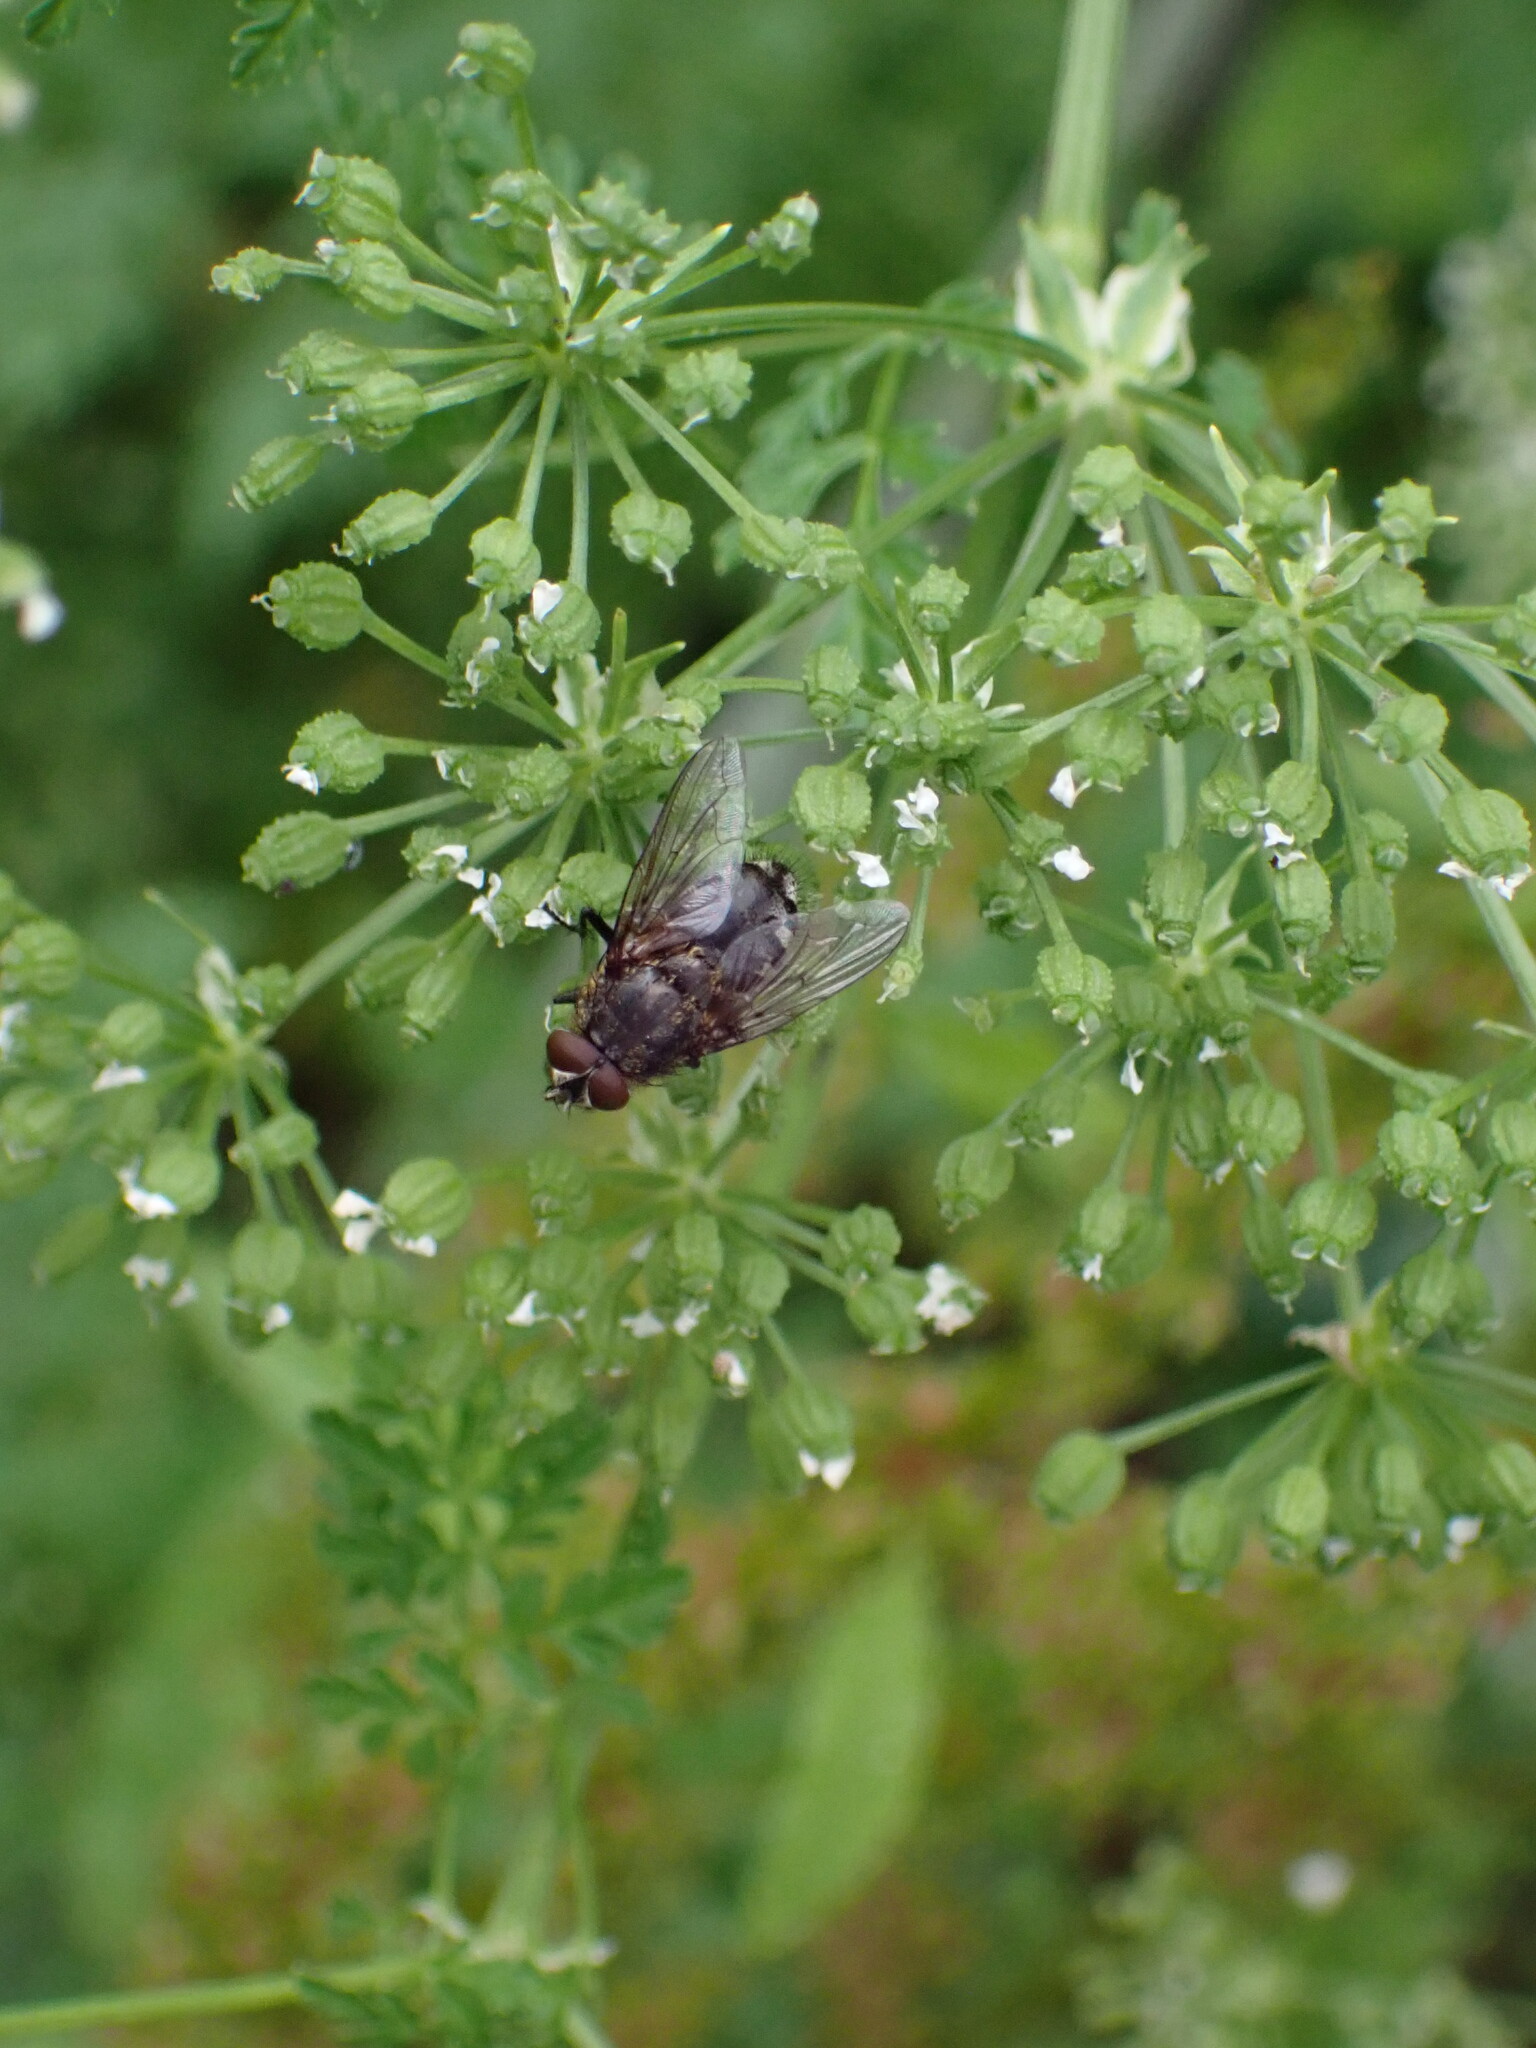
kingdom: Animalia
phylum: Arthropoda
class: Insecta
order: Diptera
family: Polleniidae
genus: Pollenia
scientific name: Pollenia
